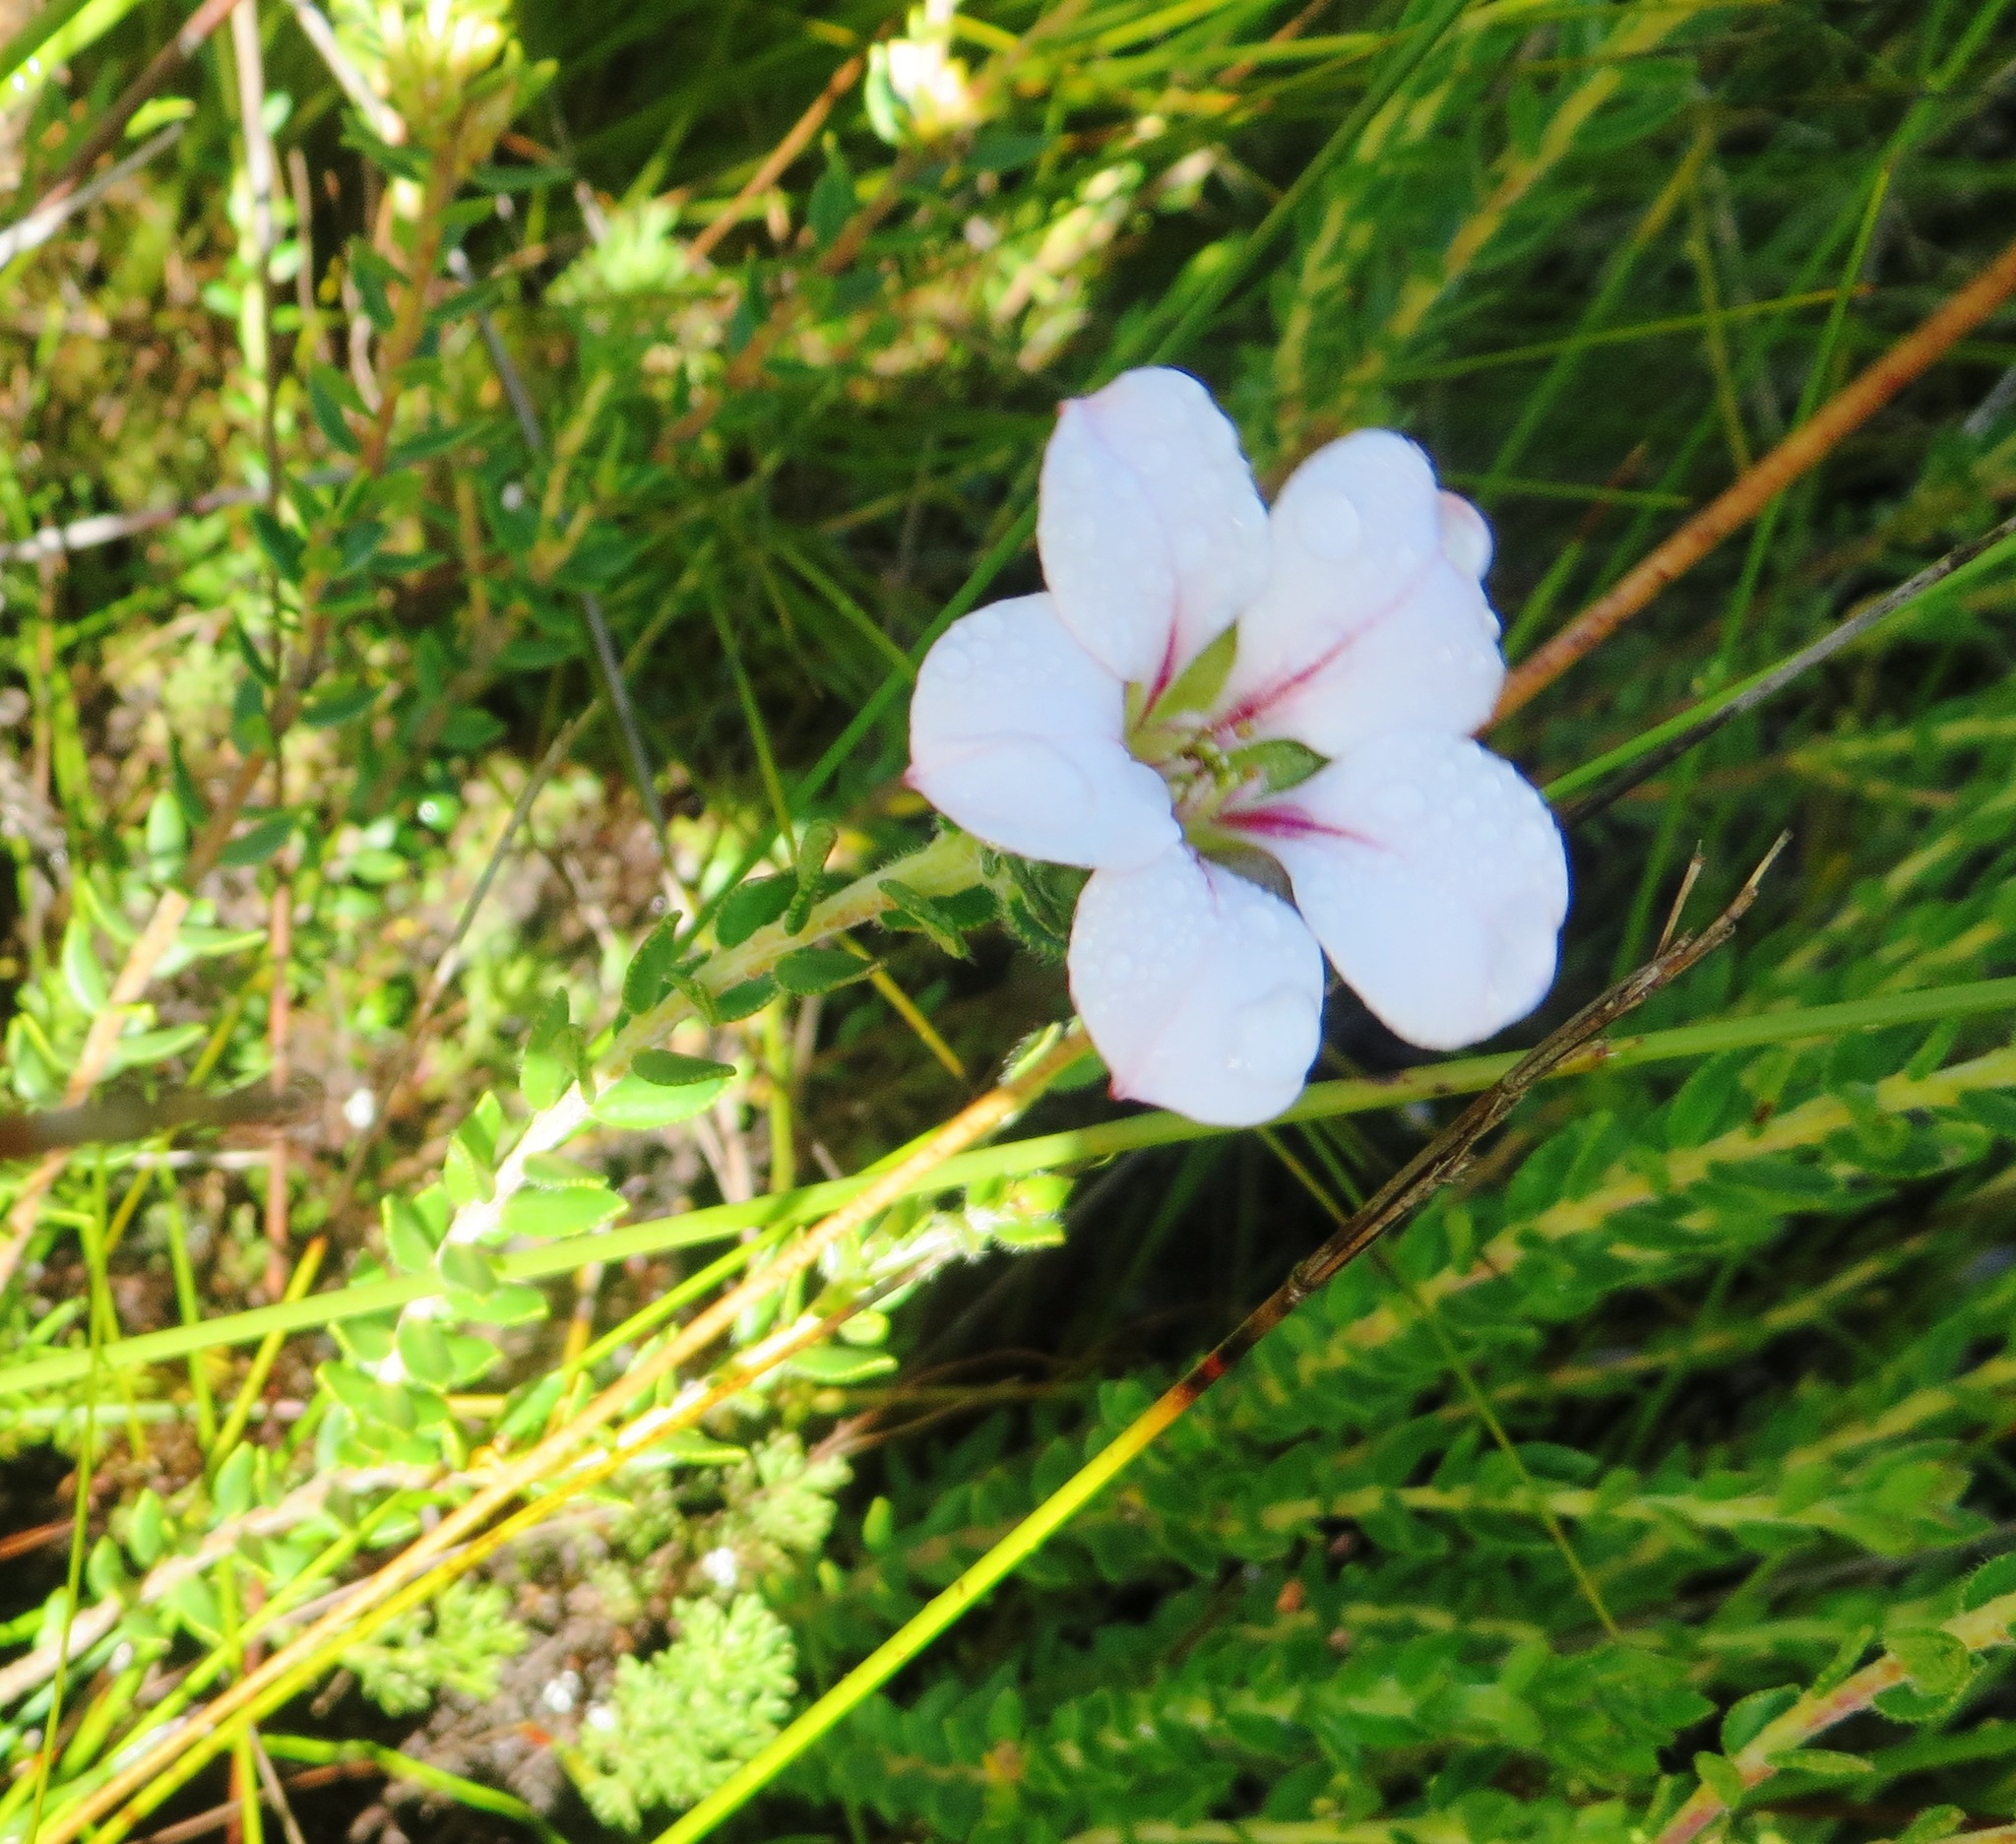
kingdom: Plantae
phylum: Tracheophyta
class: Magnoliopsida
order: Sapindales
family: Rutaceae
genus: Adenandra
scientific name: Adenandra acuta
